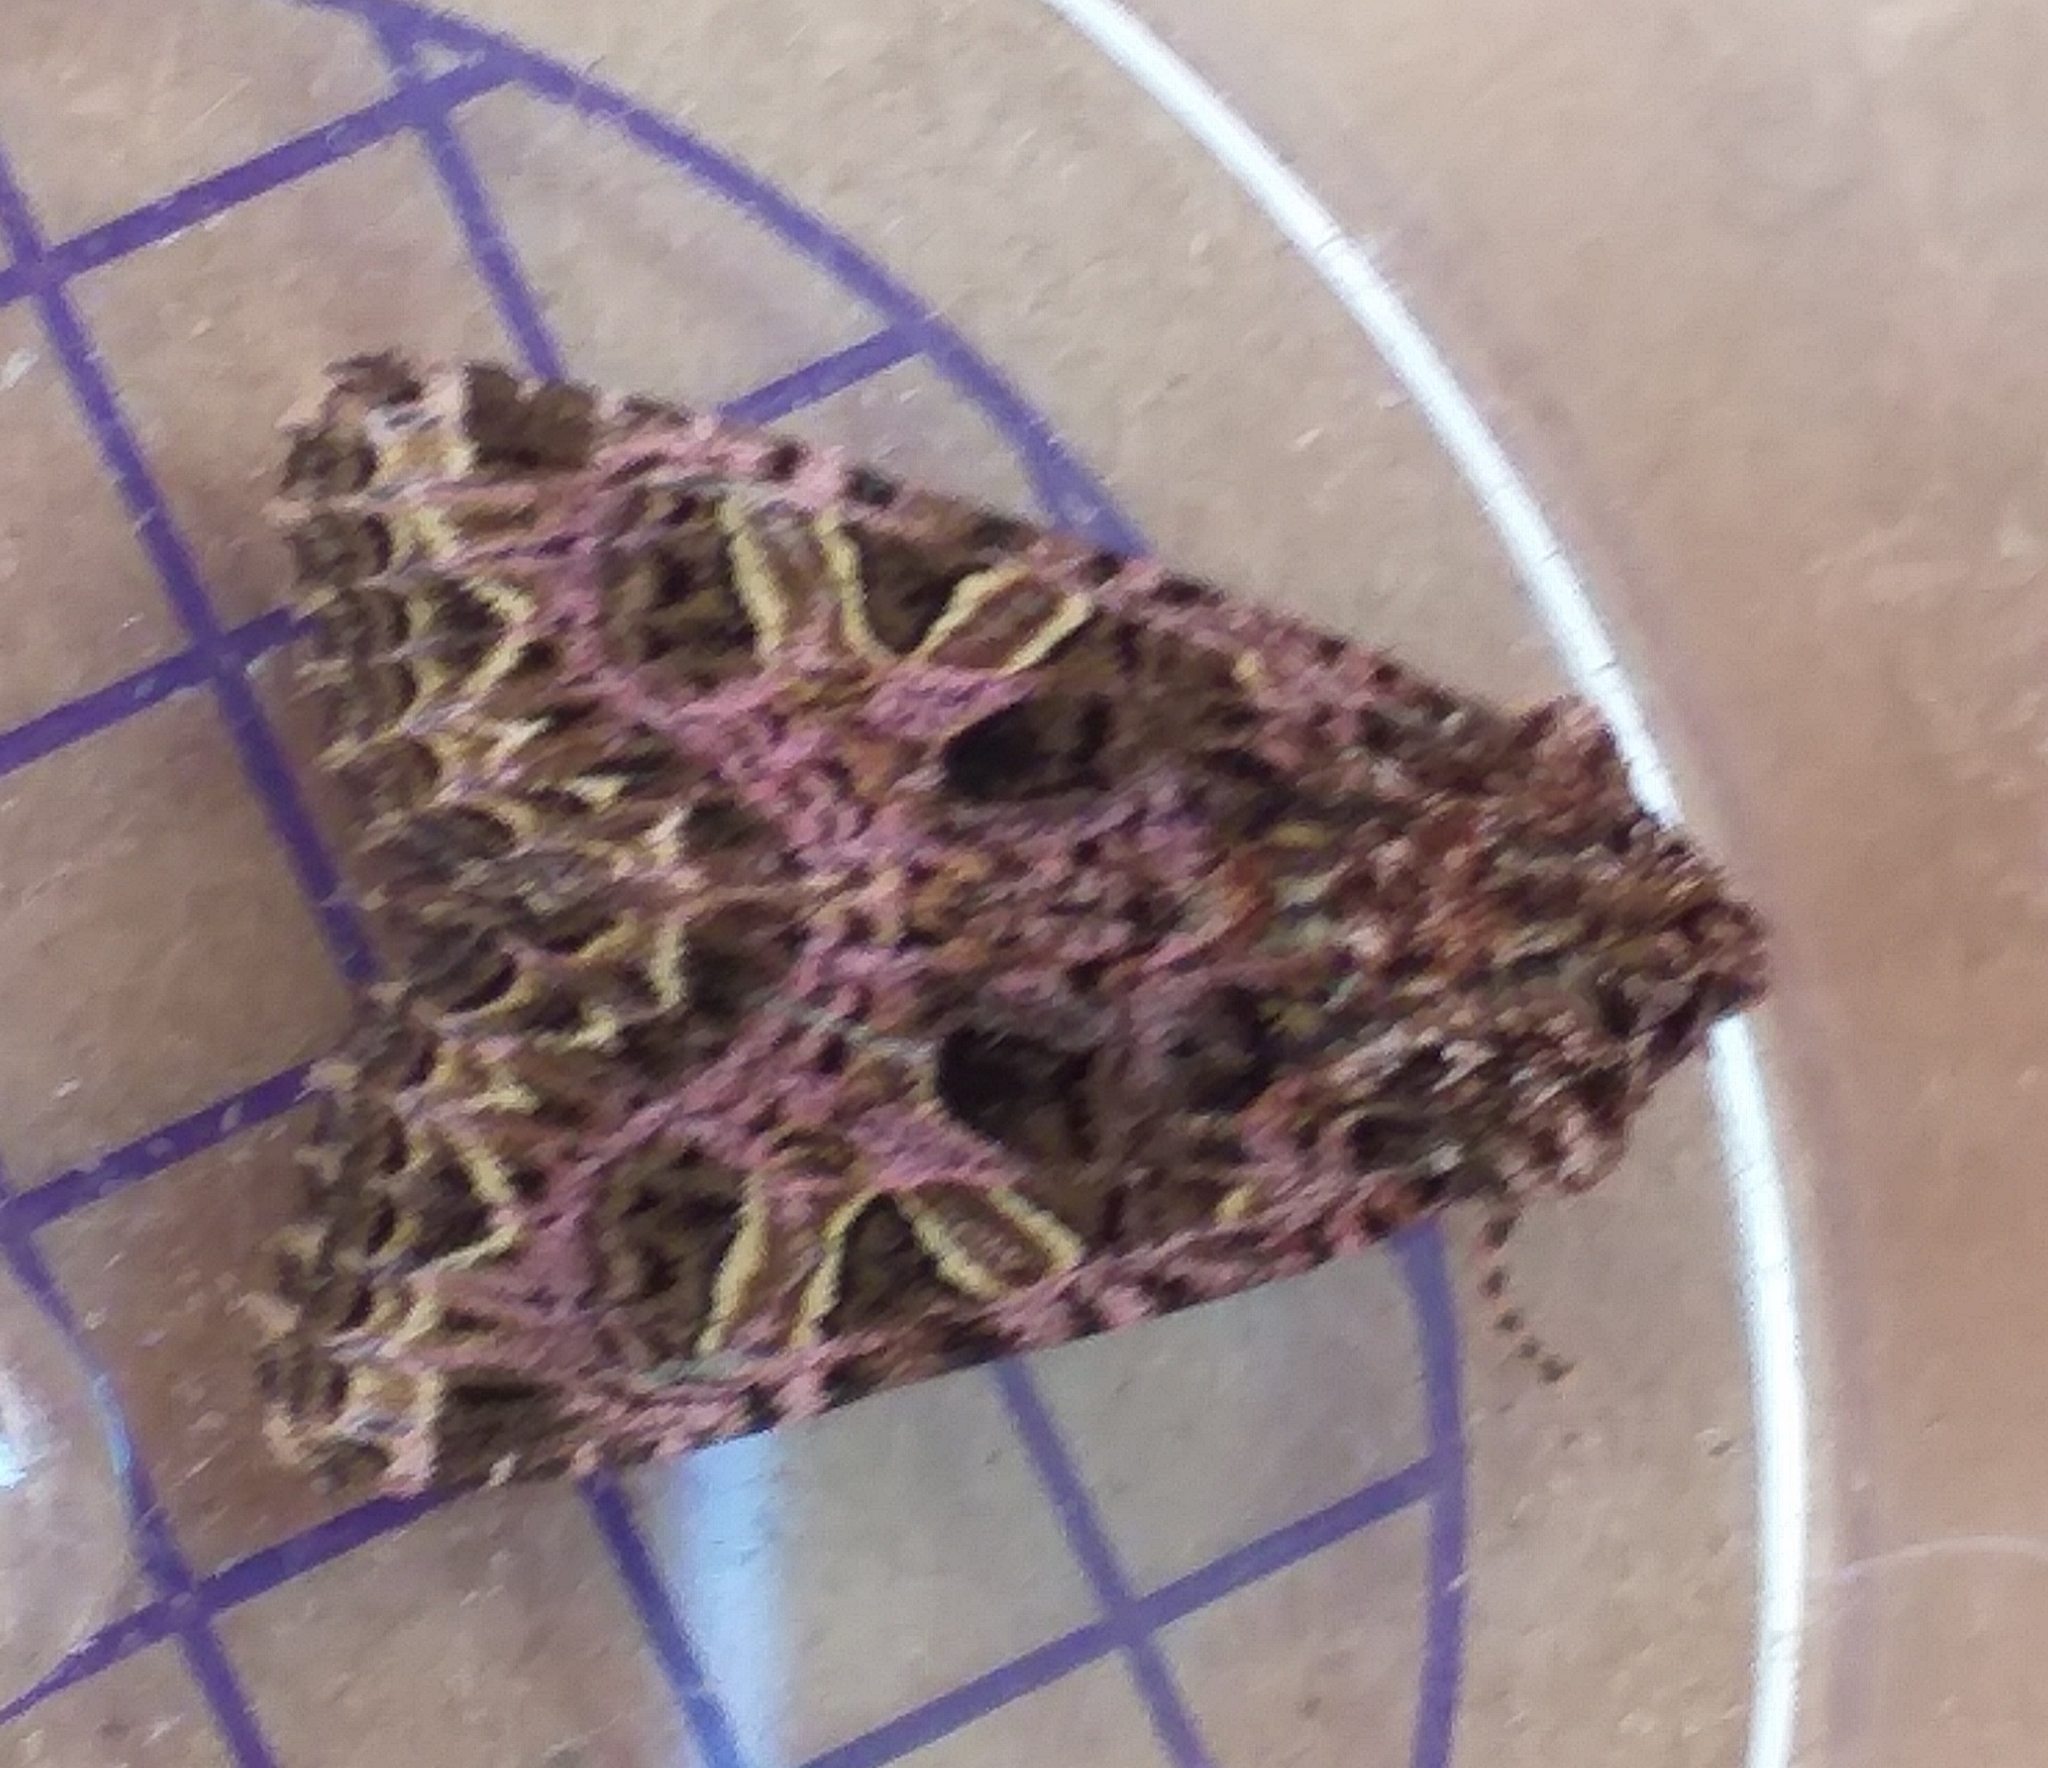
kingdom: Animalia
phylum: Arthropoda
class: Insecta
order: Lepidoptera
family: Noctuidae
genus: Sideridis
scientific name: Sideridis rivularis
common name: Campion
